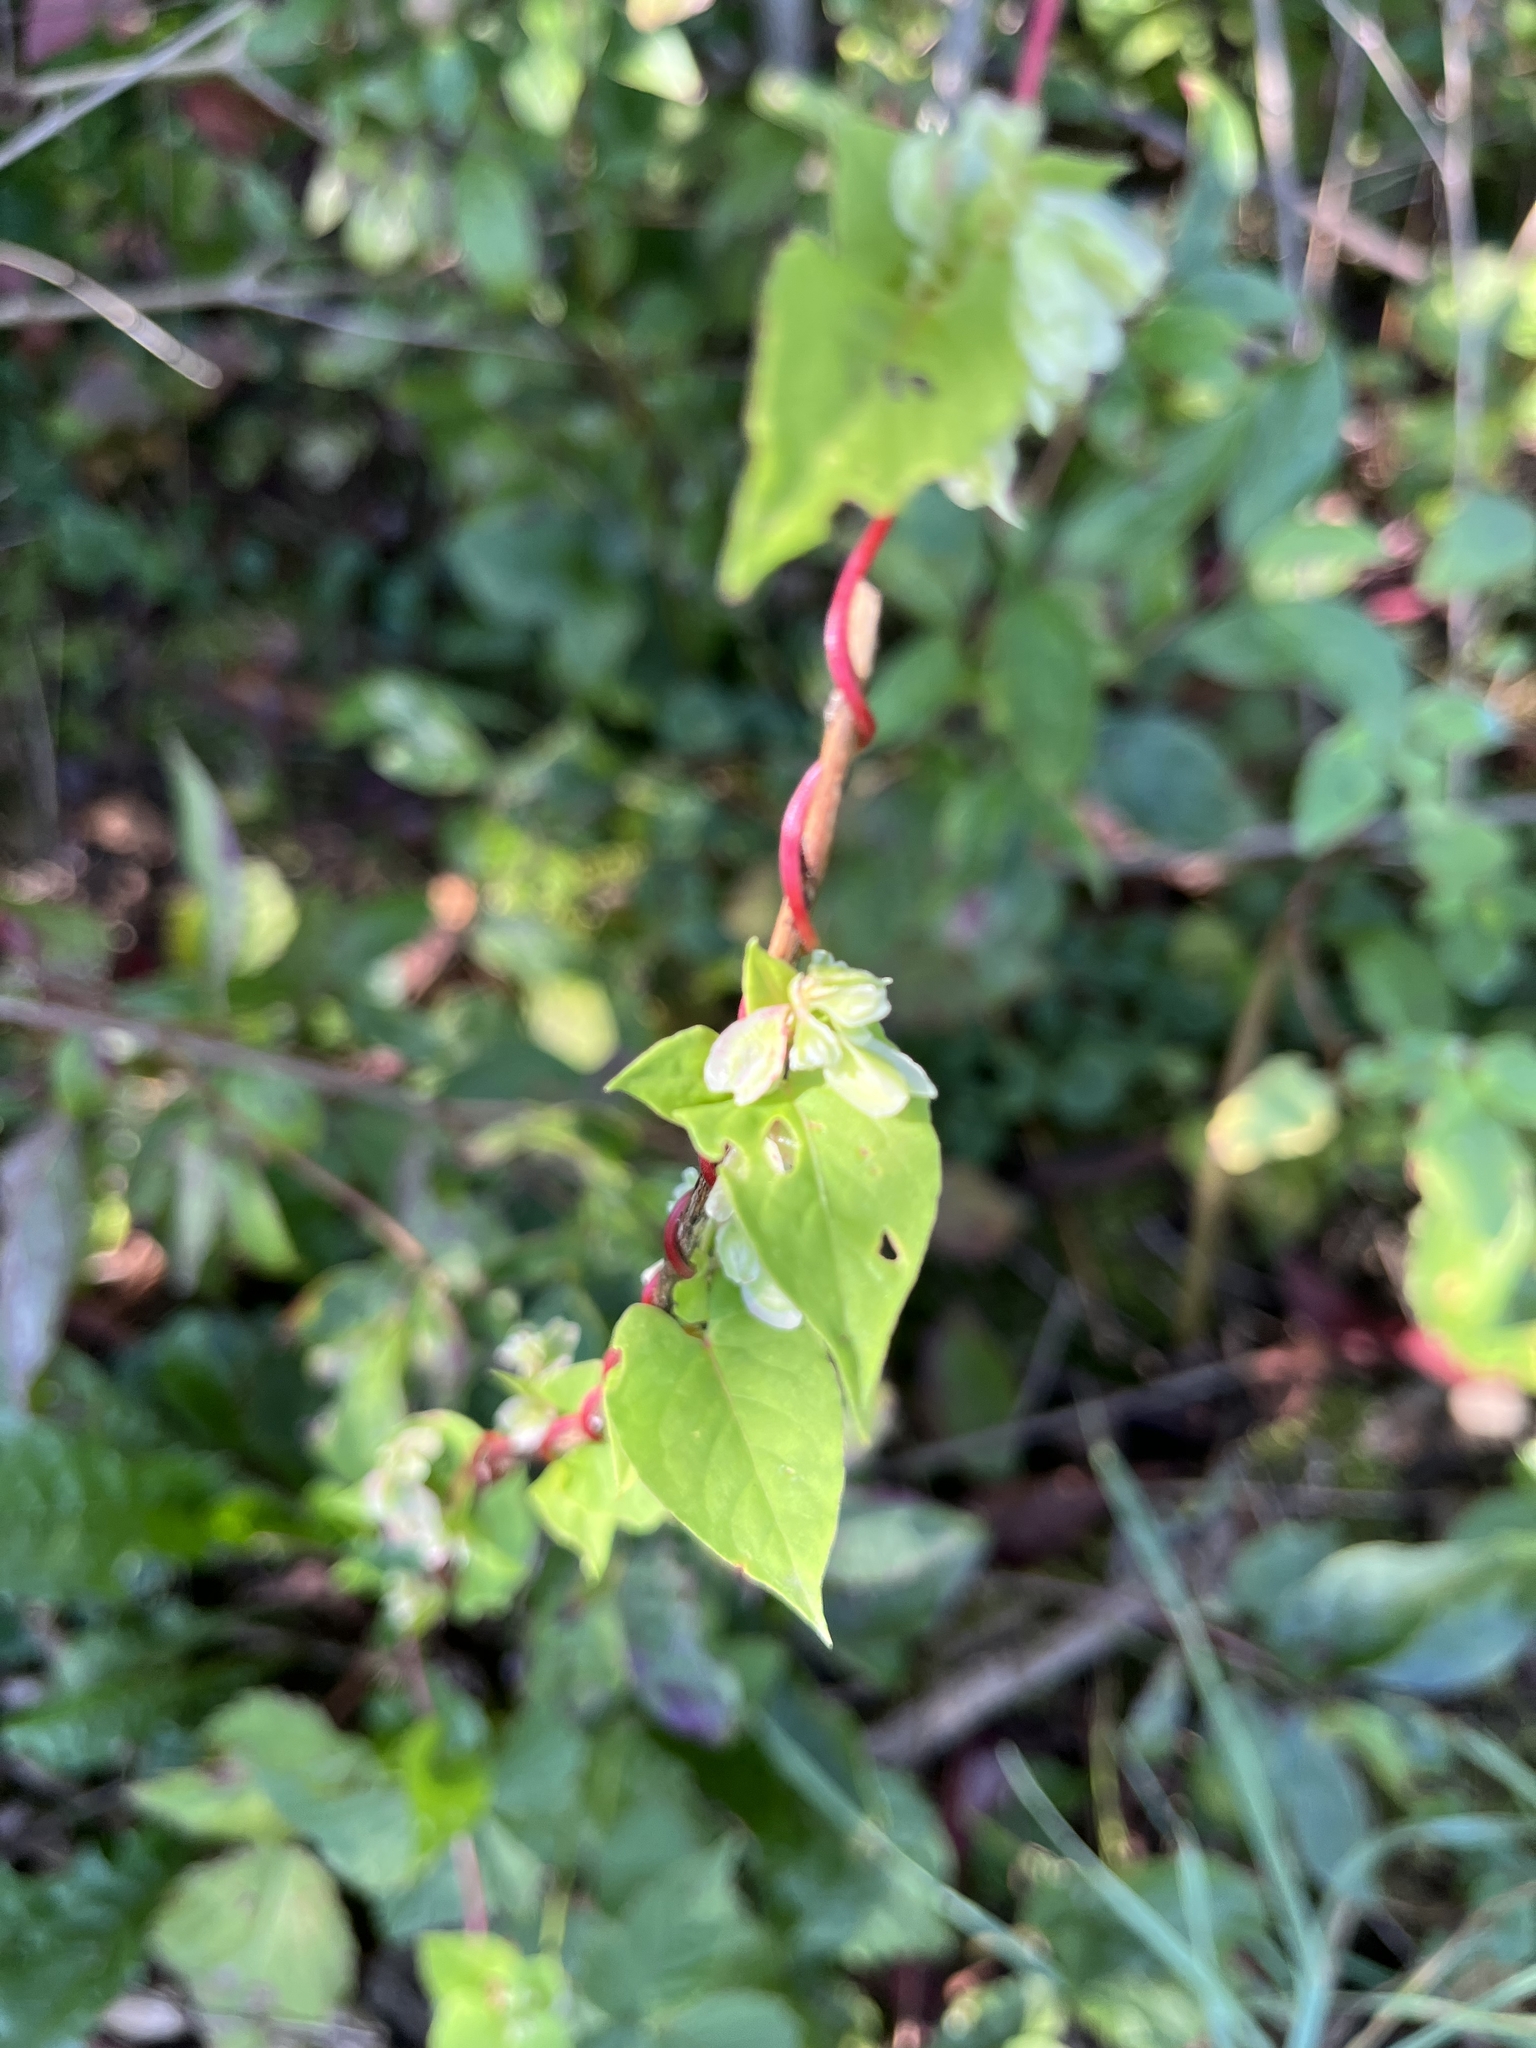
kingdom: Plantae
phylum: Tracheophyta
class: Magnoliopsida
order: Caryophyllales
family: Polygonaceae
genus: Fallopia
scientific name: Fallopia scandens
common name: Climbing false buckwheat
